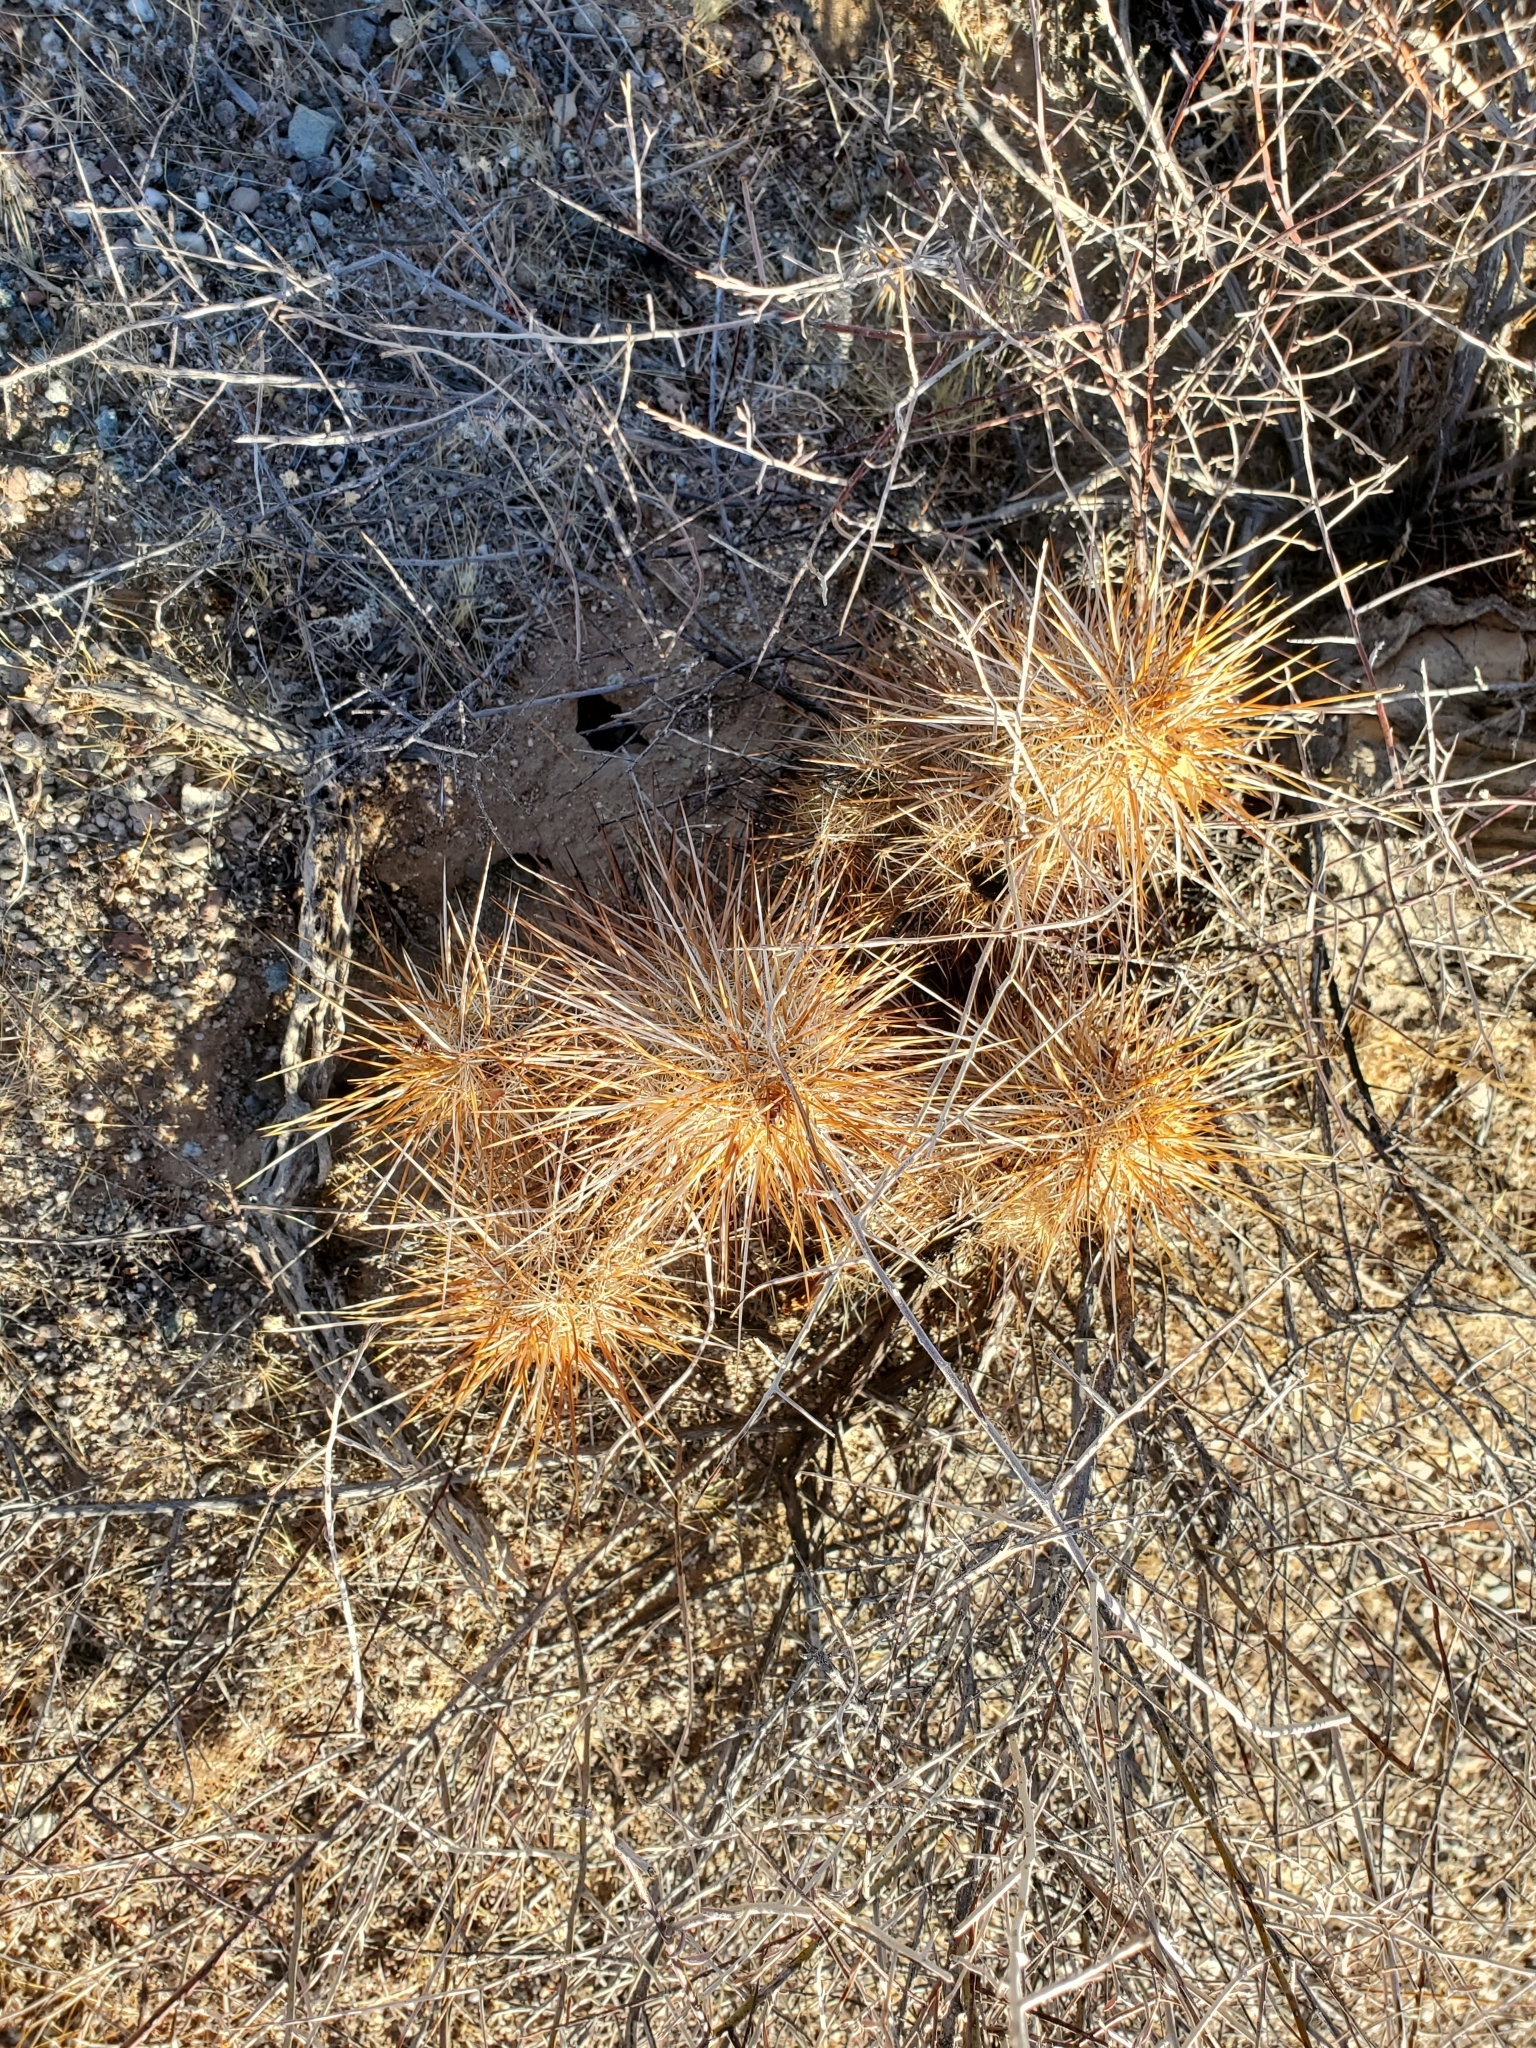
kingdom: Plantae
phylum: Tracheophyta
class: Magnoliopsida
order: Caryophyllales
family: Cactaceae
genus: Echinocereus
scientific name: Echinocereus engelmannii
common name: Engelmann's hedgehog cactus
